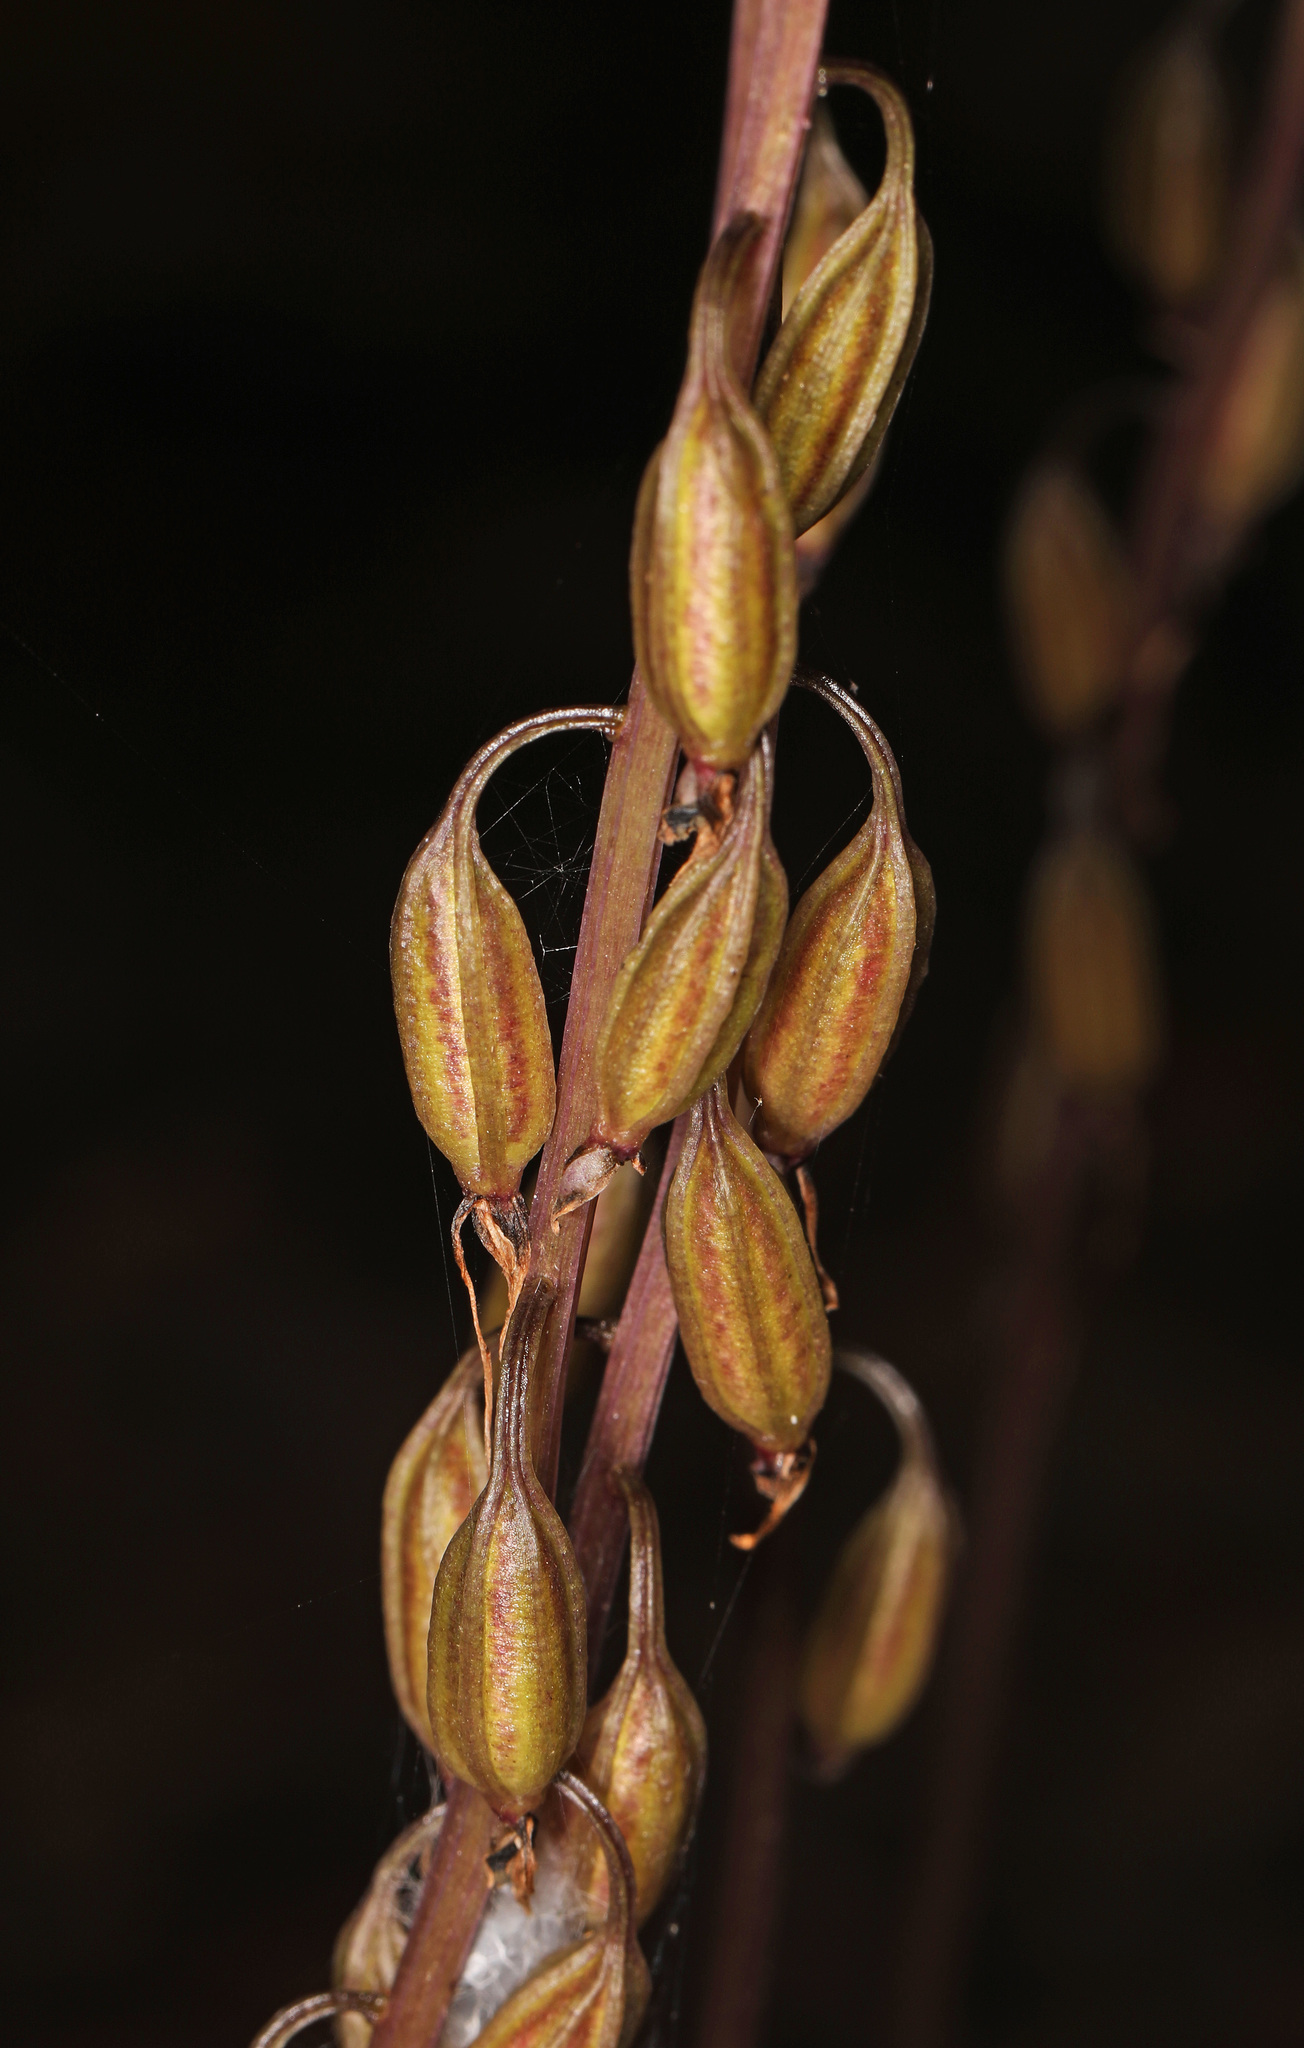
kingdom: Plantae
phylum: Tracheophyta
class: Liliopsida
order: Asparagales
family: Orchidaceae
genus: Tipularia
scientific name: Tipularia discolor
